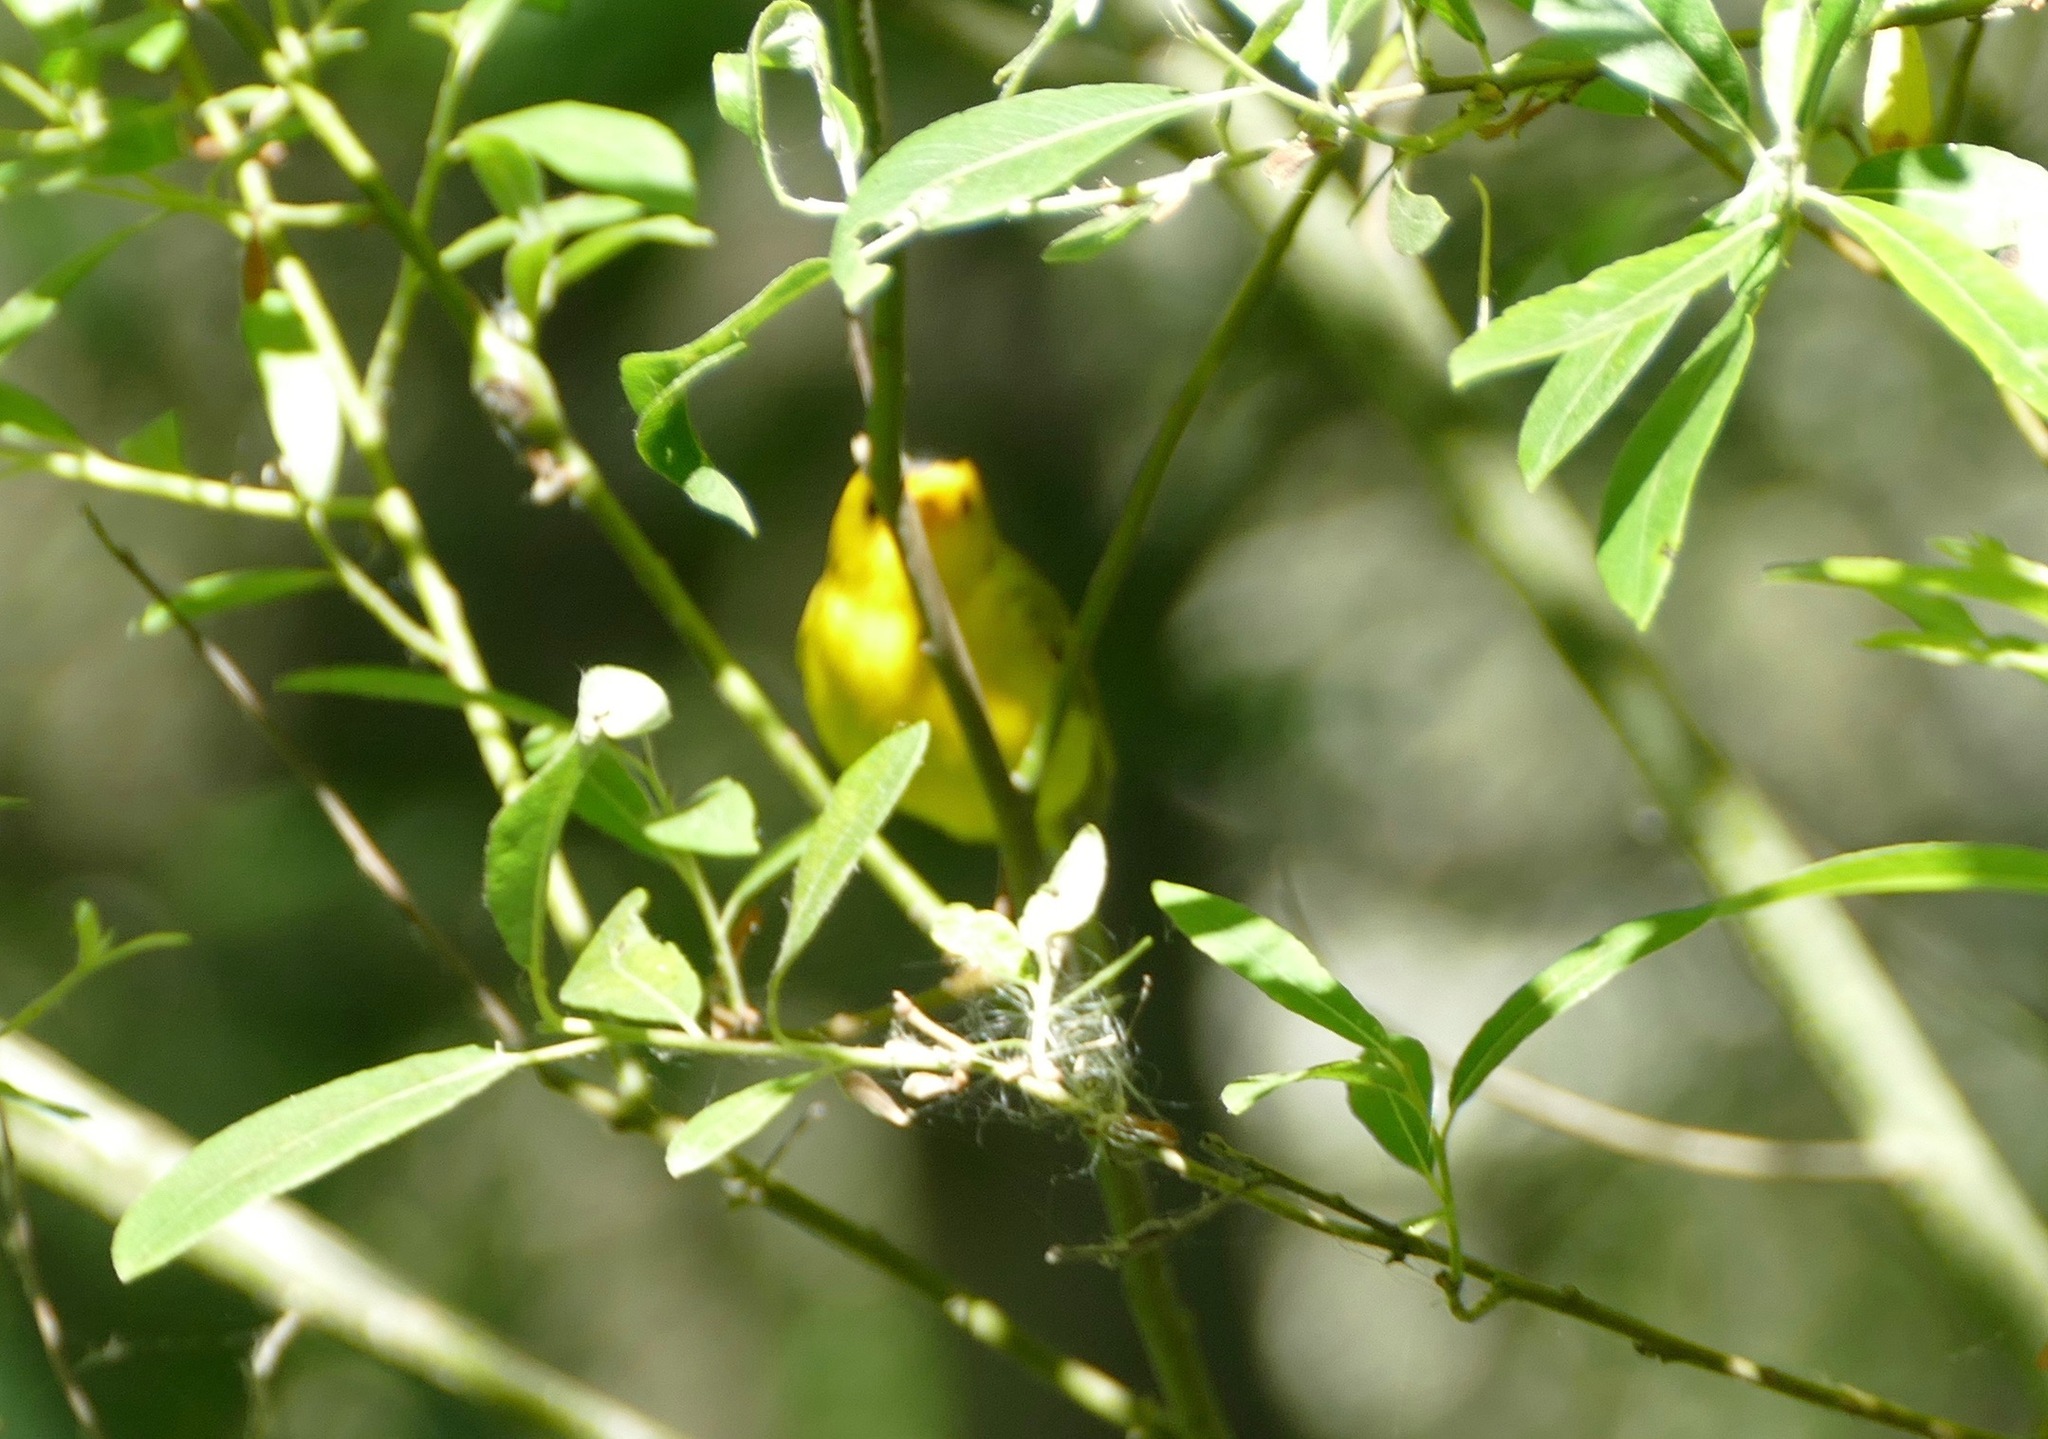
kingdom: Animalia
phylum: Chordata
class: Aves
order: Passeriformes
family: Parulidae
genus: Cardellina
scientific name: Cardellina pusilla
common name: Wilson's warbler
